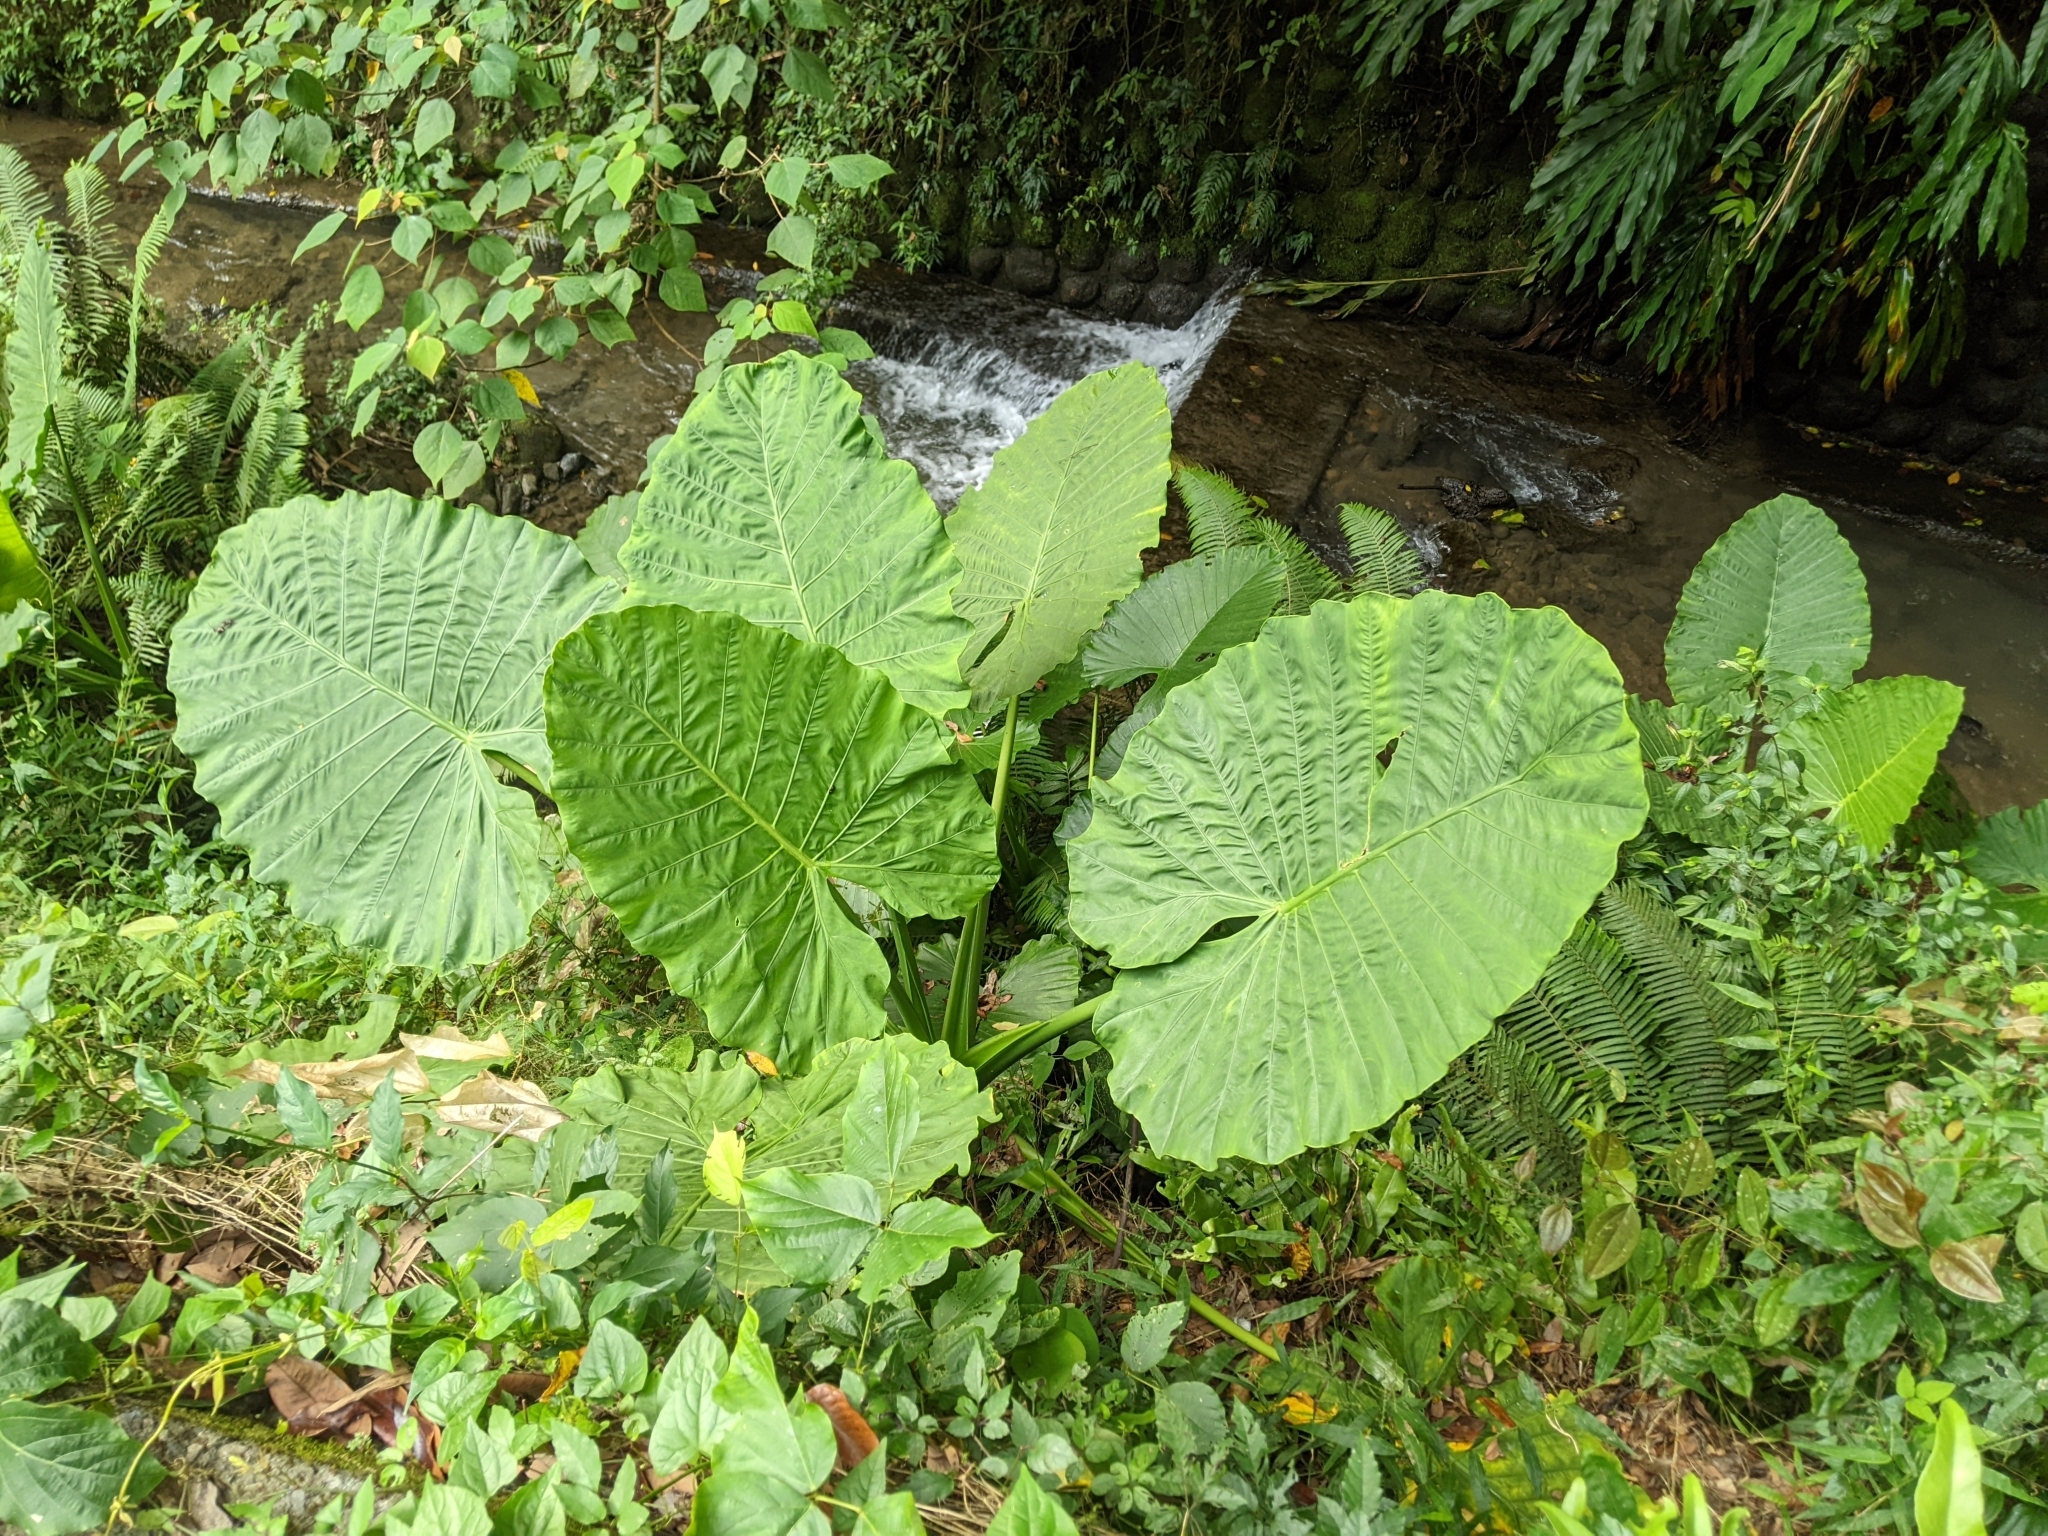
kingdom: Plantae
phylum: Tracheophyta
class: Liliopsida
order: Alismatales
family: Araceae
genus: Alocasia
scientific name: Alocasia odora
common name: Asian taro
